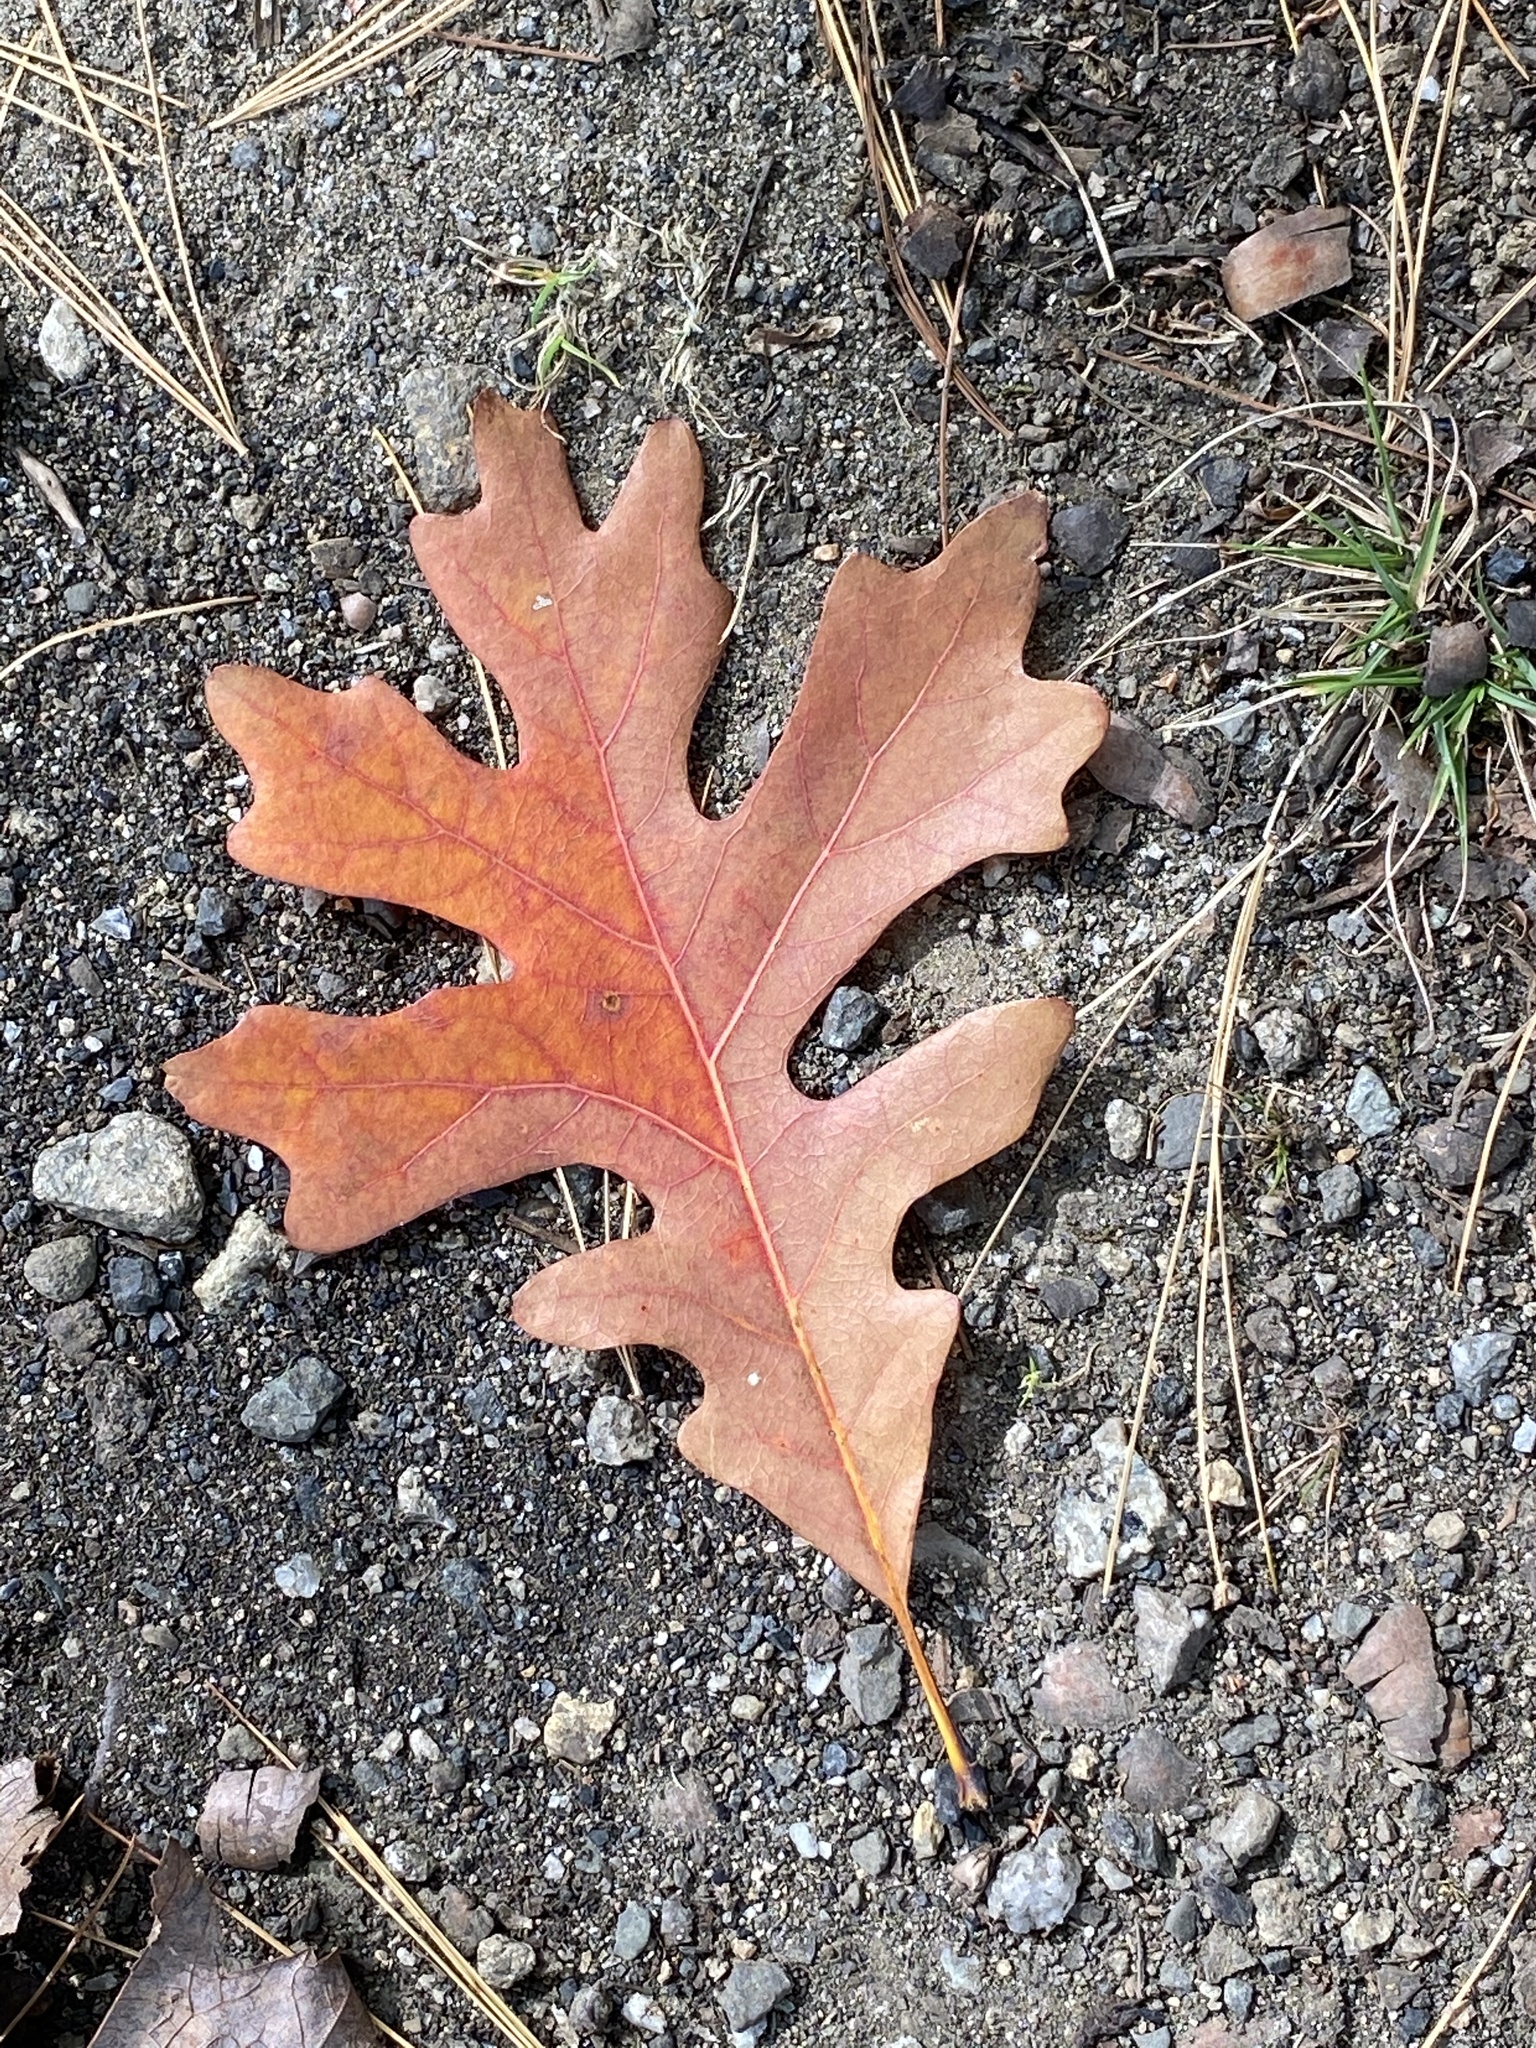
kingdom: Plantae
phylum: Tracheophyta
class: Magnoliopsida
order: Fagales
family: Fagaceae
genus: Quercus
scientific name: Quercus alba
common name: White oak
